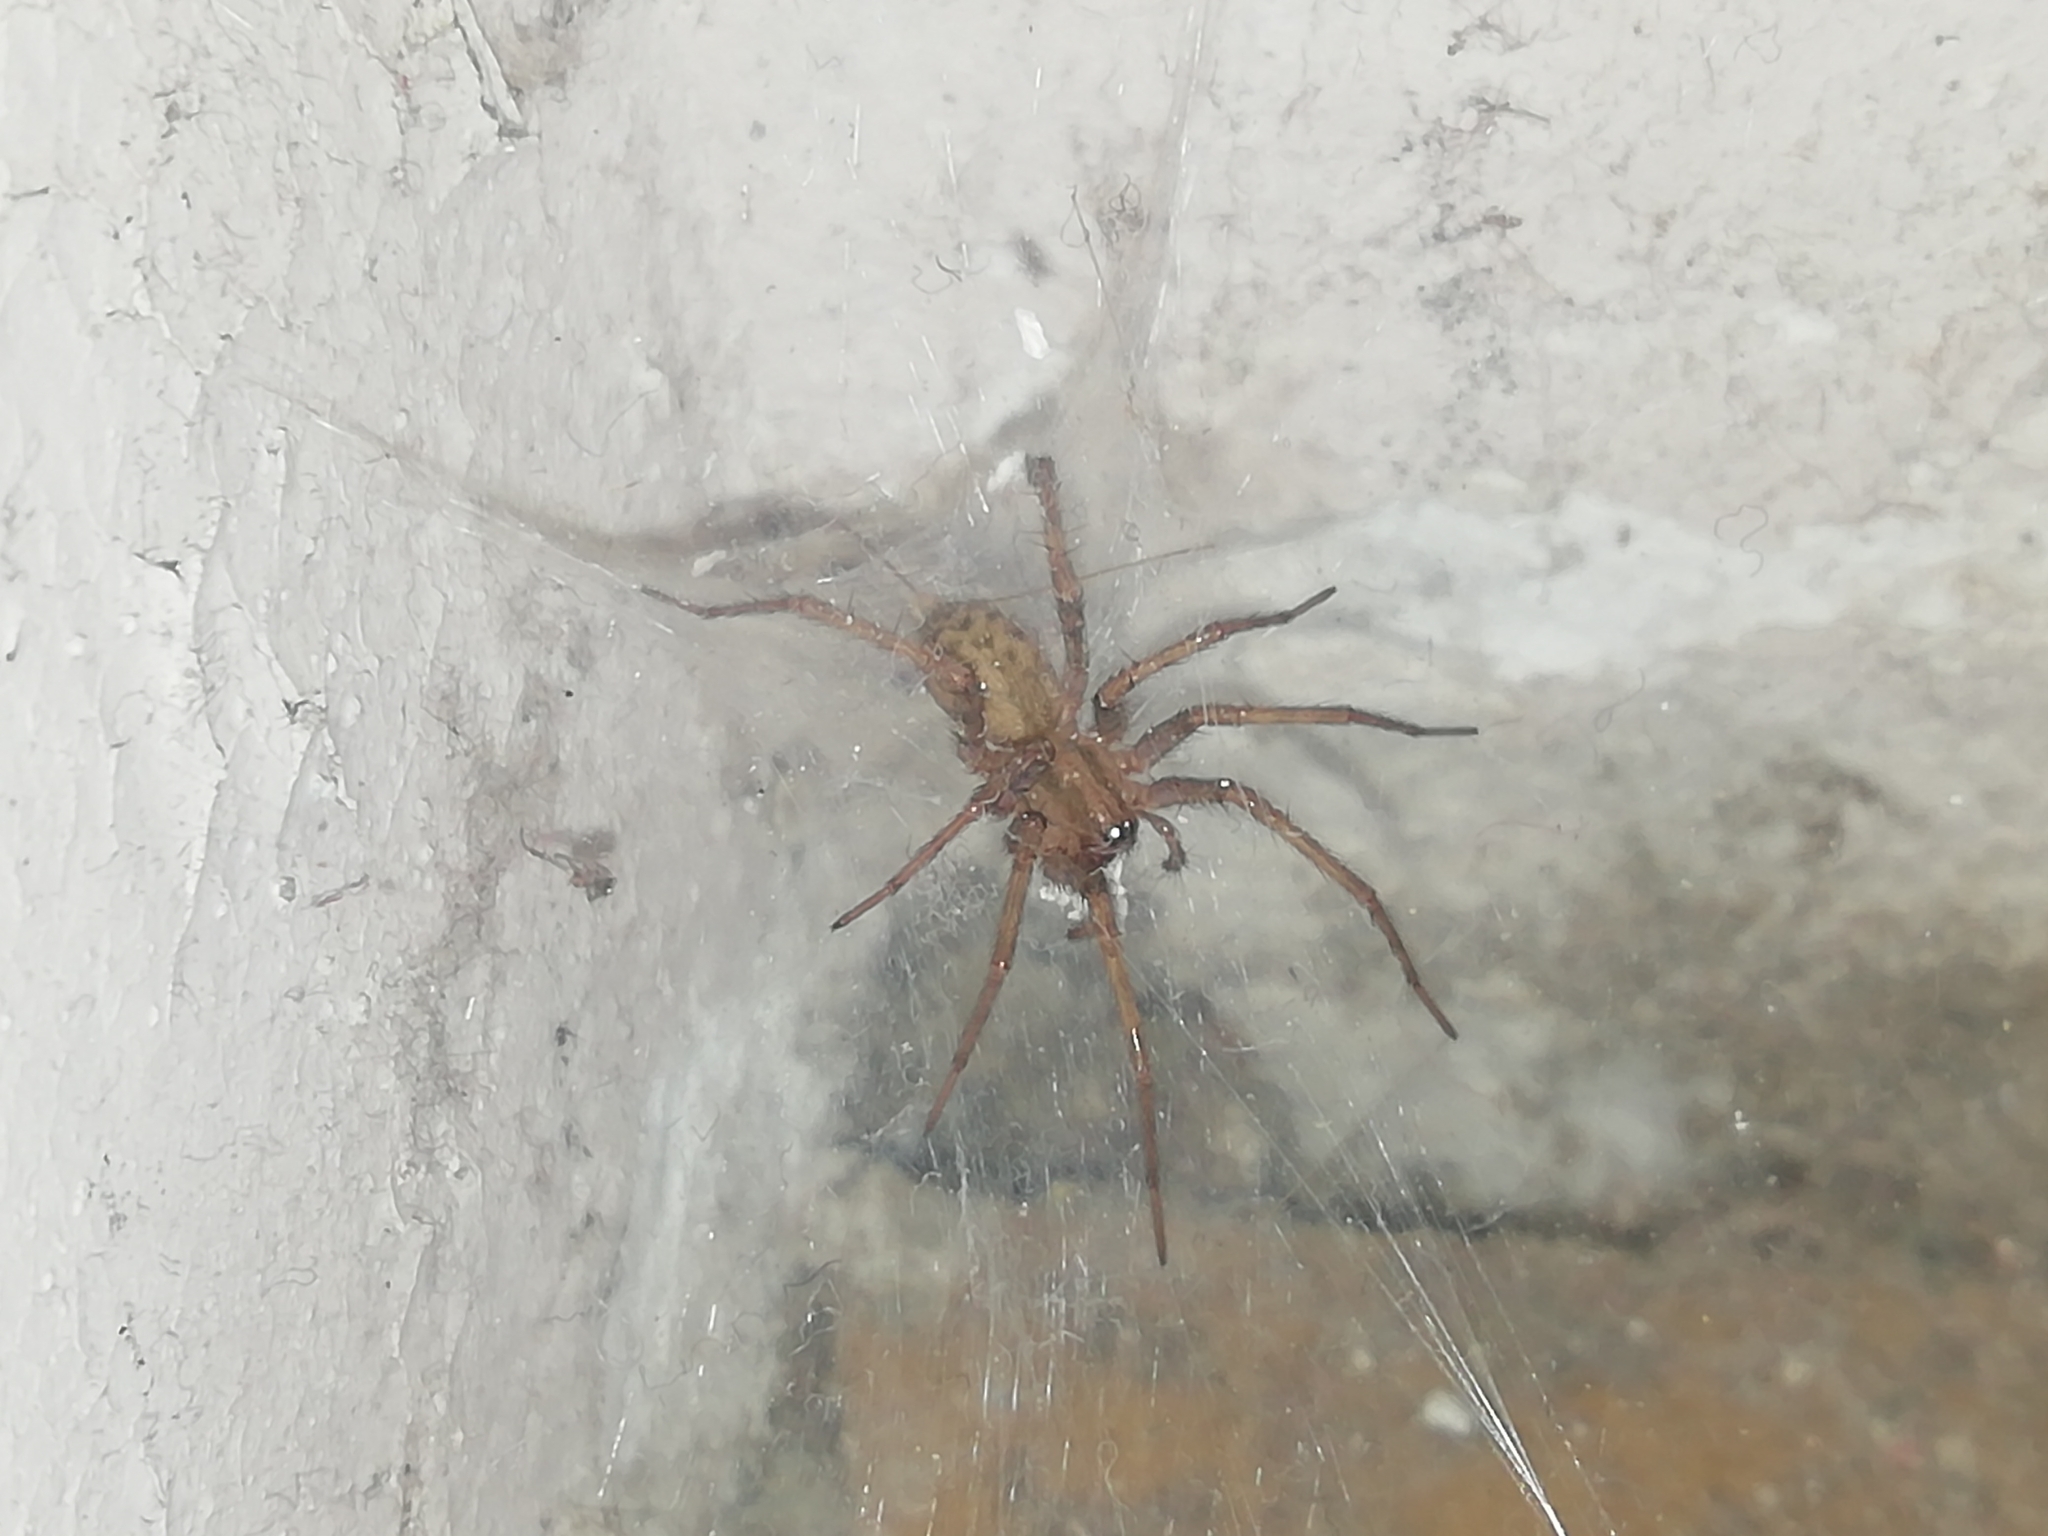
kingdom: Animalia
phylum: Arthropoda
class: Arachnida
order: Araneae
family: Agelenidae
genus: Tegenaria
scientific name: Tegenaria domestica
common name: Barn funnel weaver
